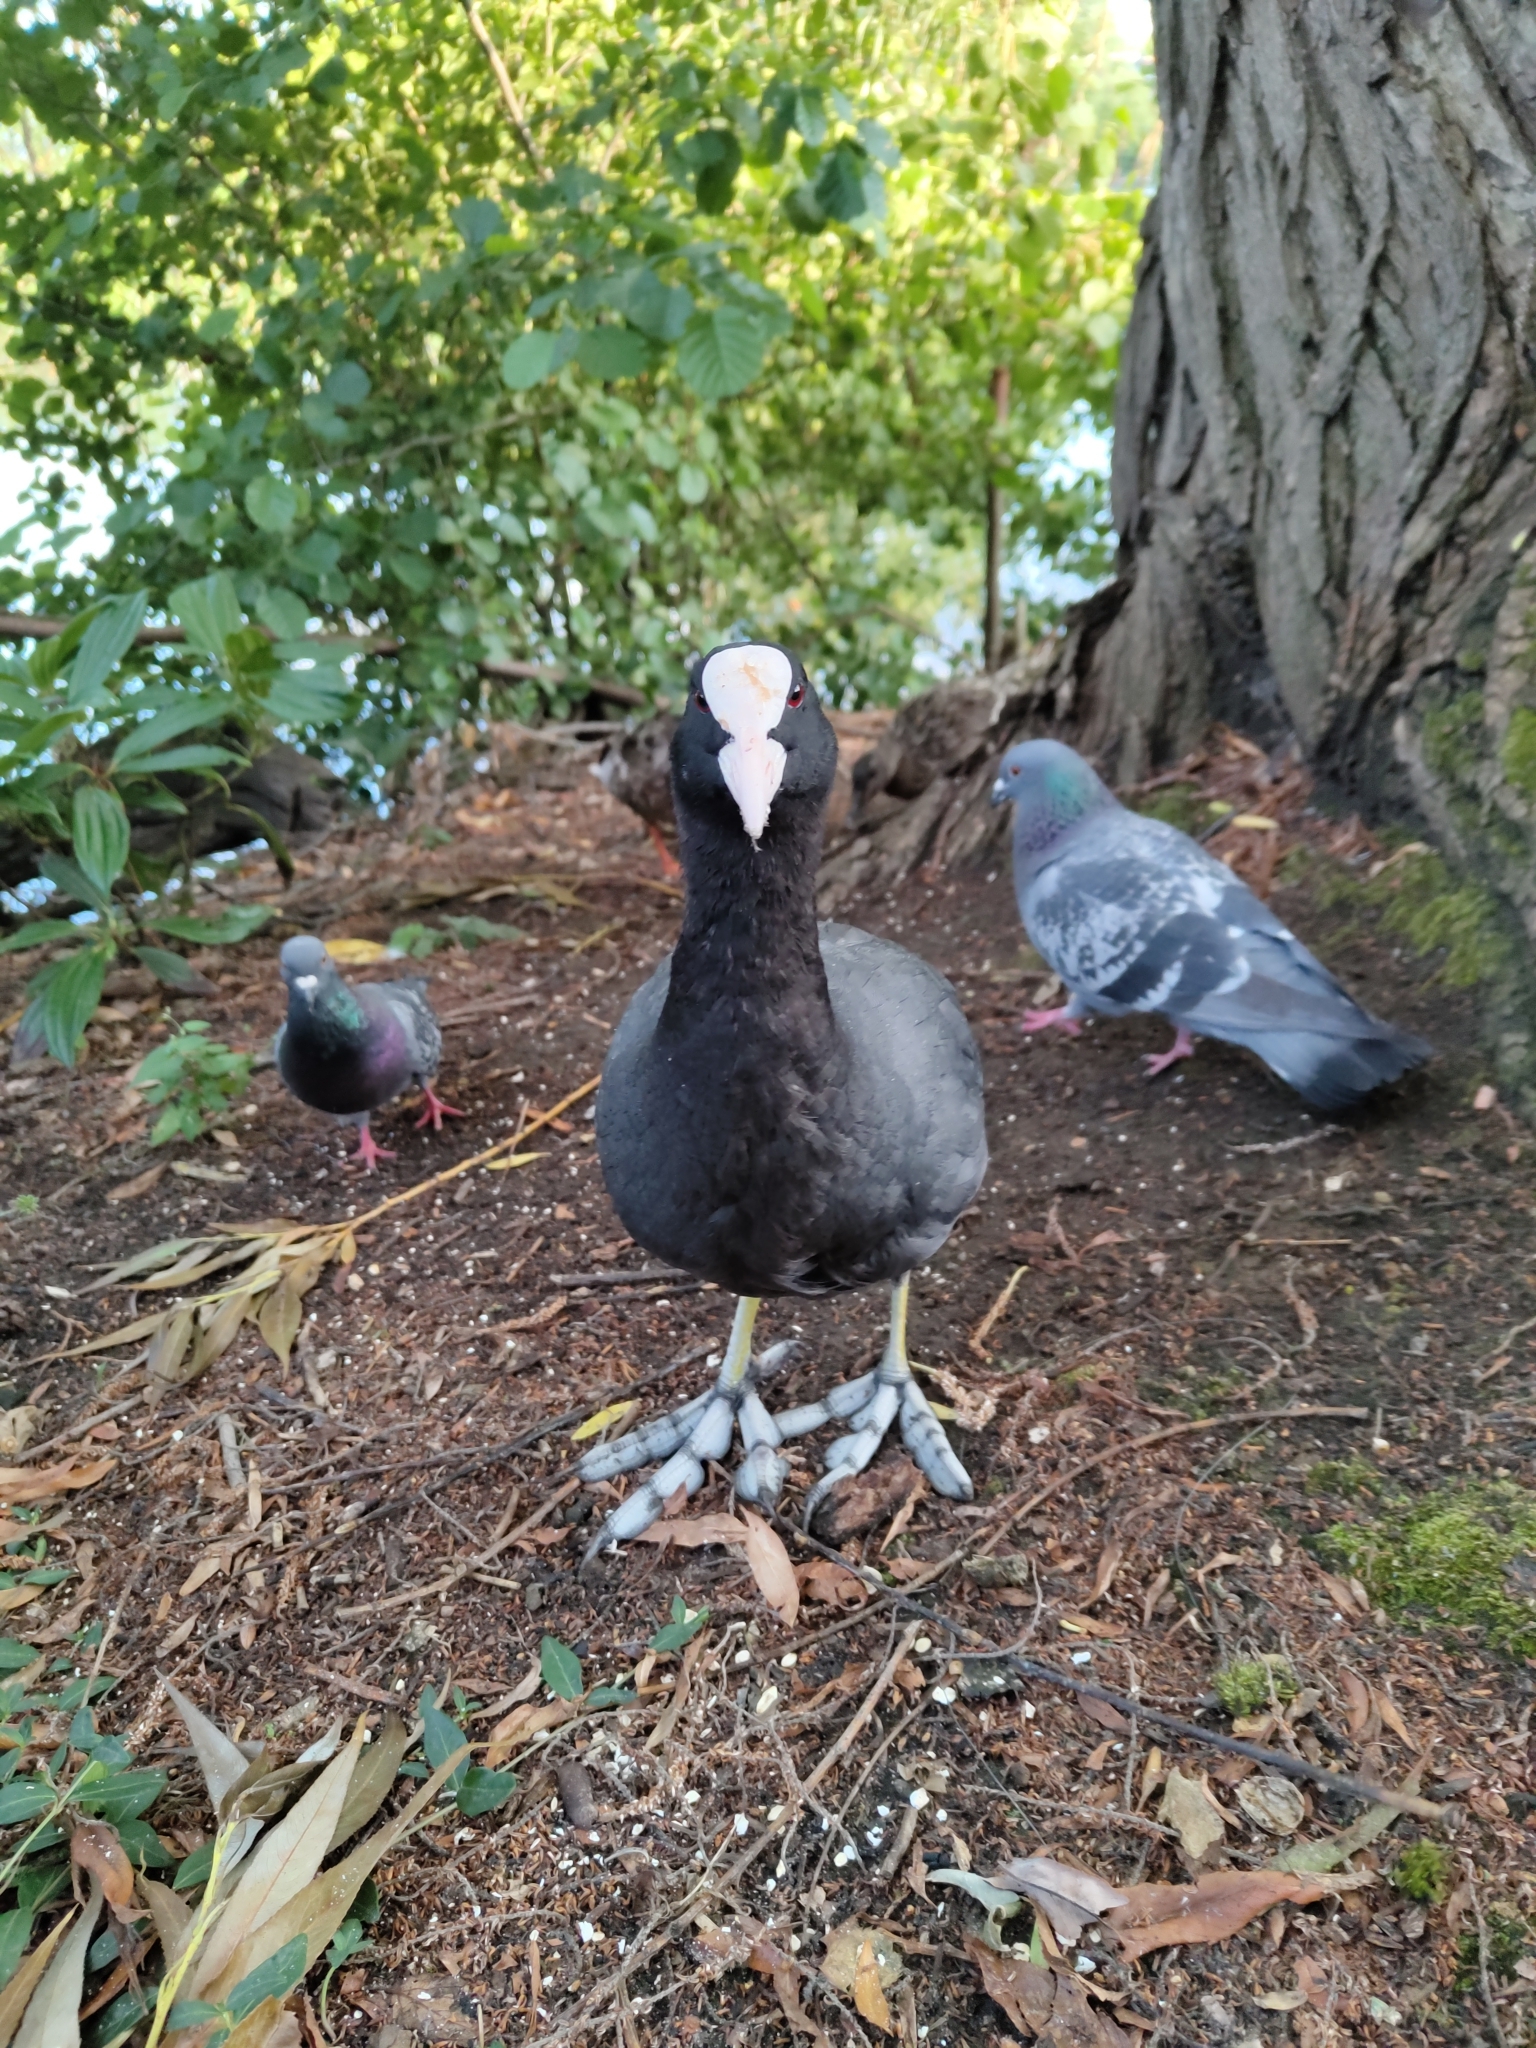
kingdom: Animalia
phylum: Chordata
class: Aves
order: Gruiformes
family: Rallidae
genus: Fulica
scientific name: Fulica atra
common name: Eurasian coot
